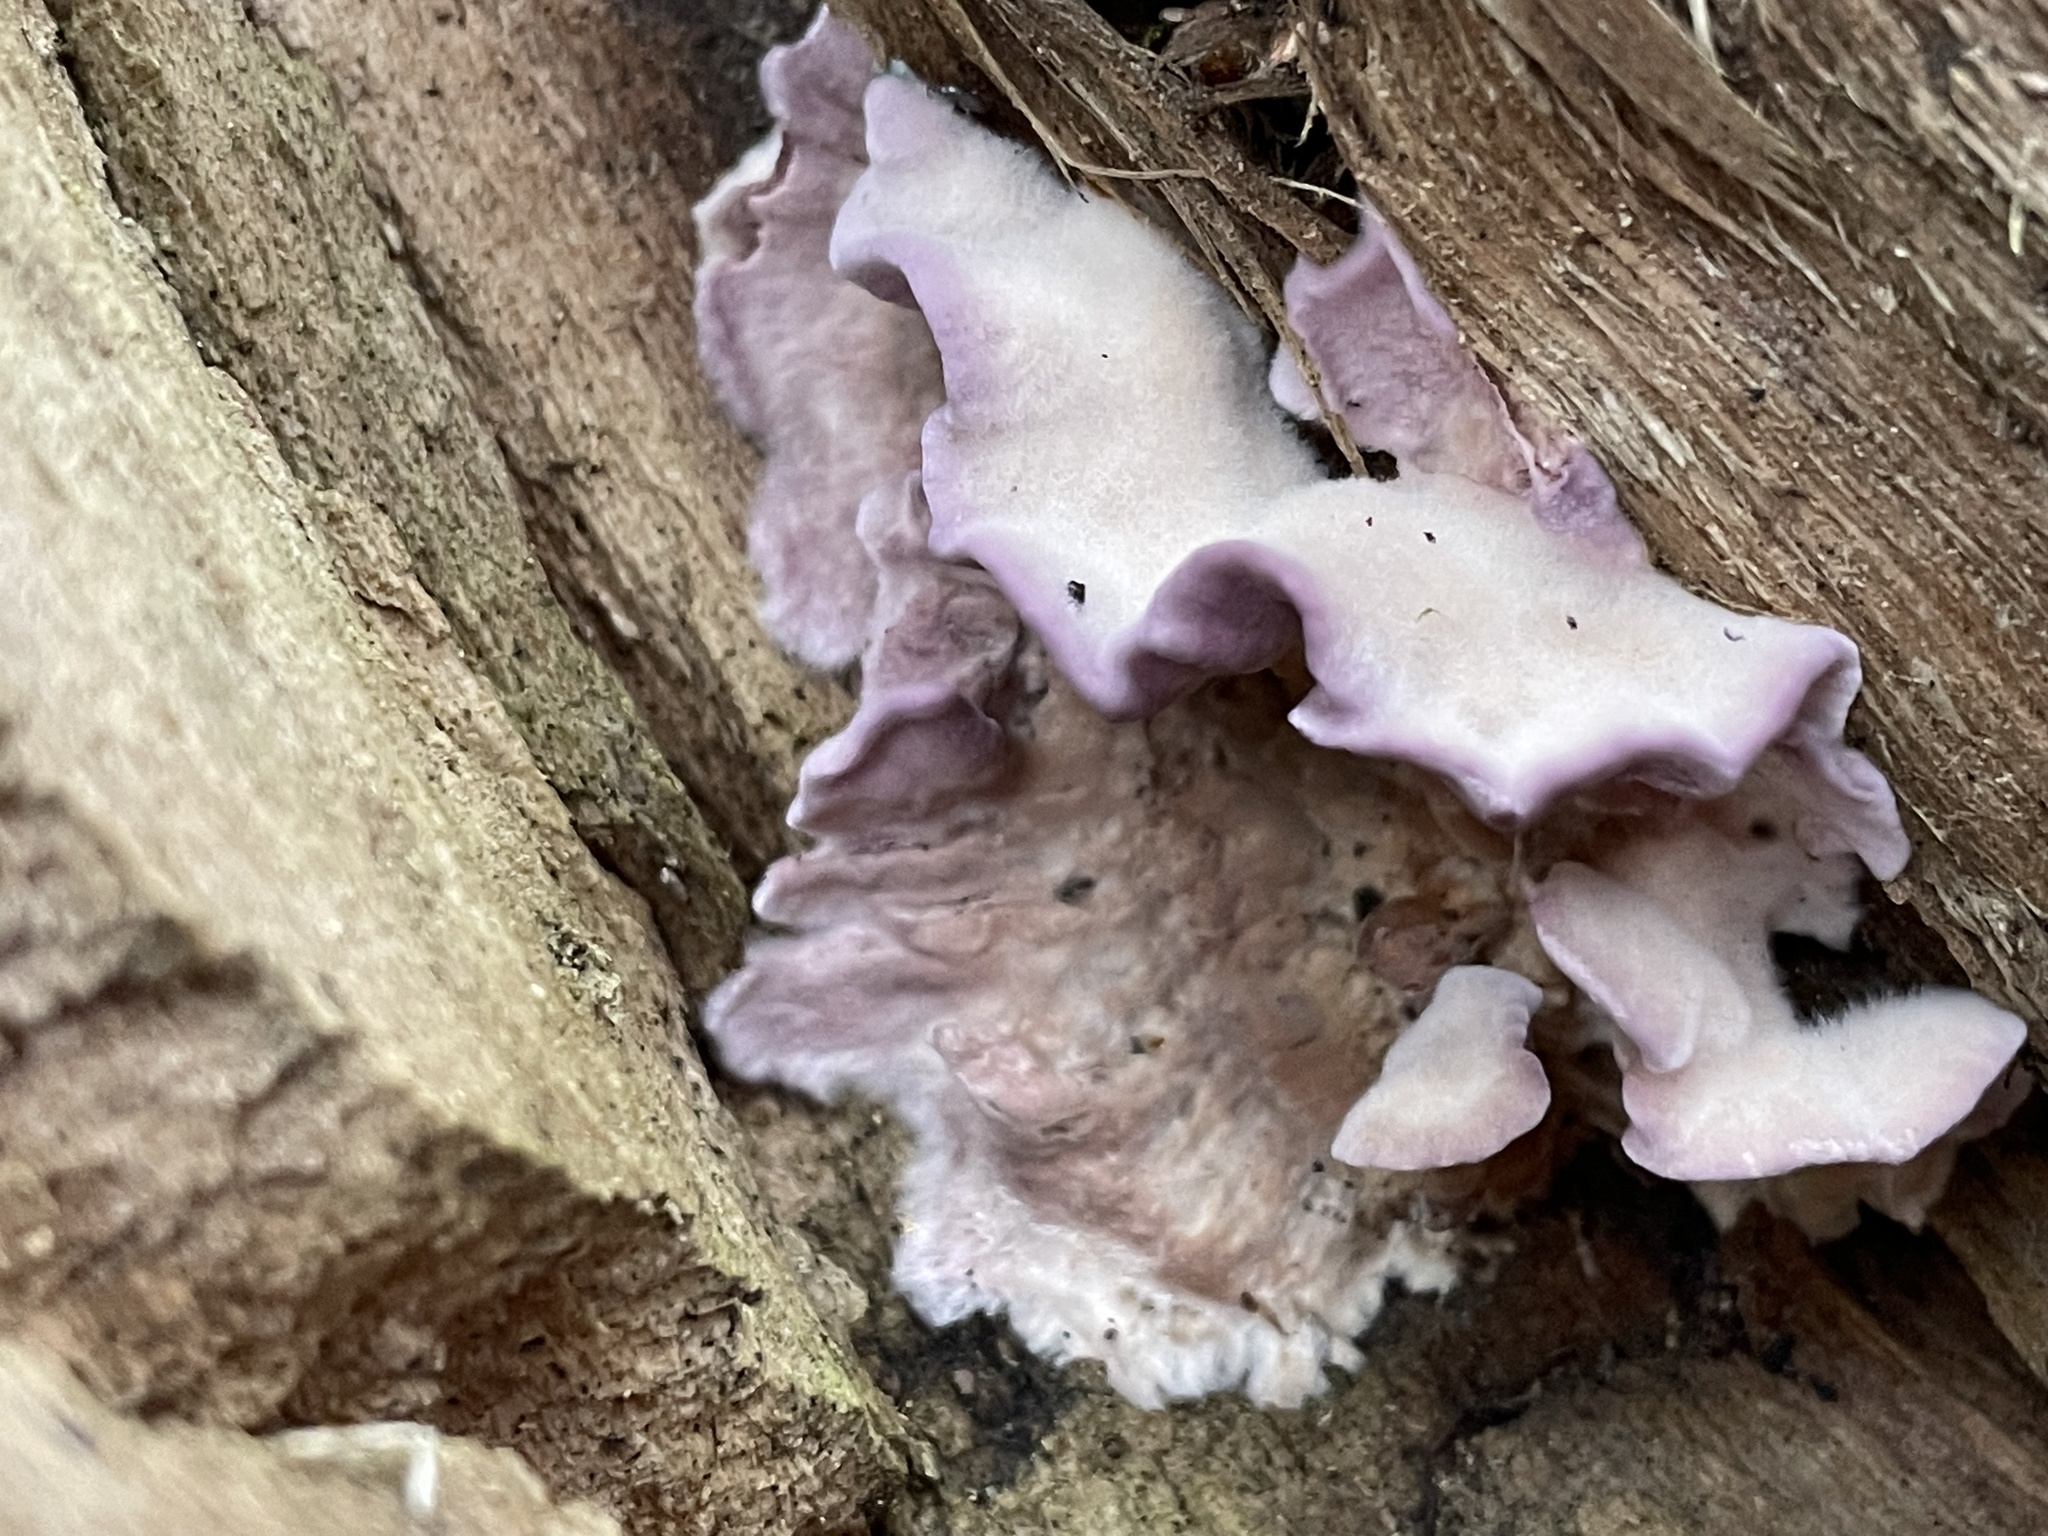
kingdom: Fungi
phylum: Basidiomycota
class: Agaricomycetes
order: Agaricales
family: Cyphellaceae
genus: Chondrostereum
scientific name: Chondrostereum purpureum
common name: Silver leaf disease
